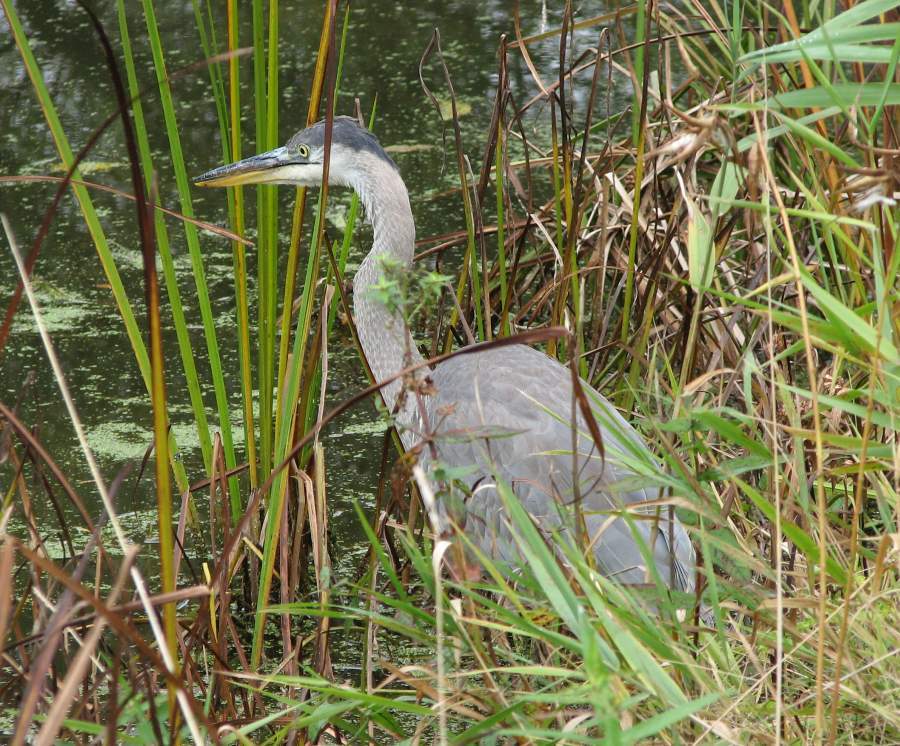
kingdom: Animalia
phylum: Chordata
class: Aves
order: Pelecaniformes
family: Ardeidae
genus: Ardea
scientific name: Ardea herodias
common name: Great blue heron
